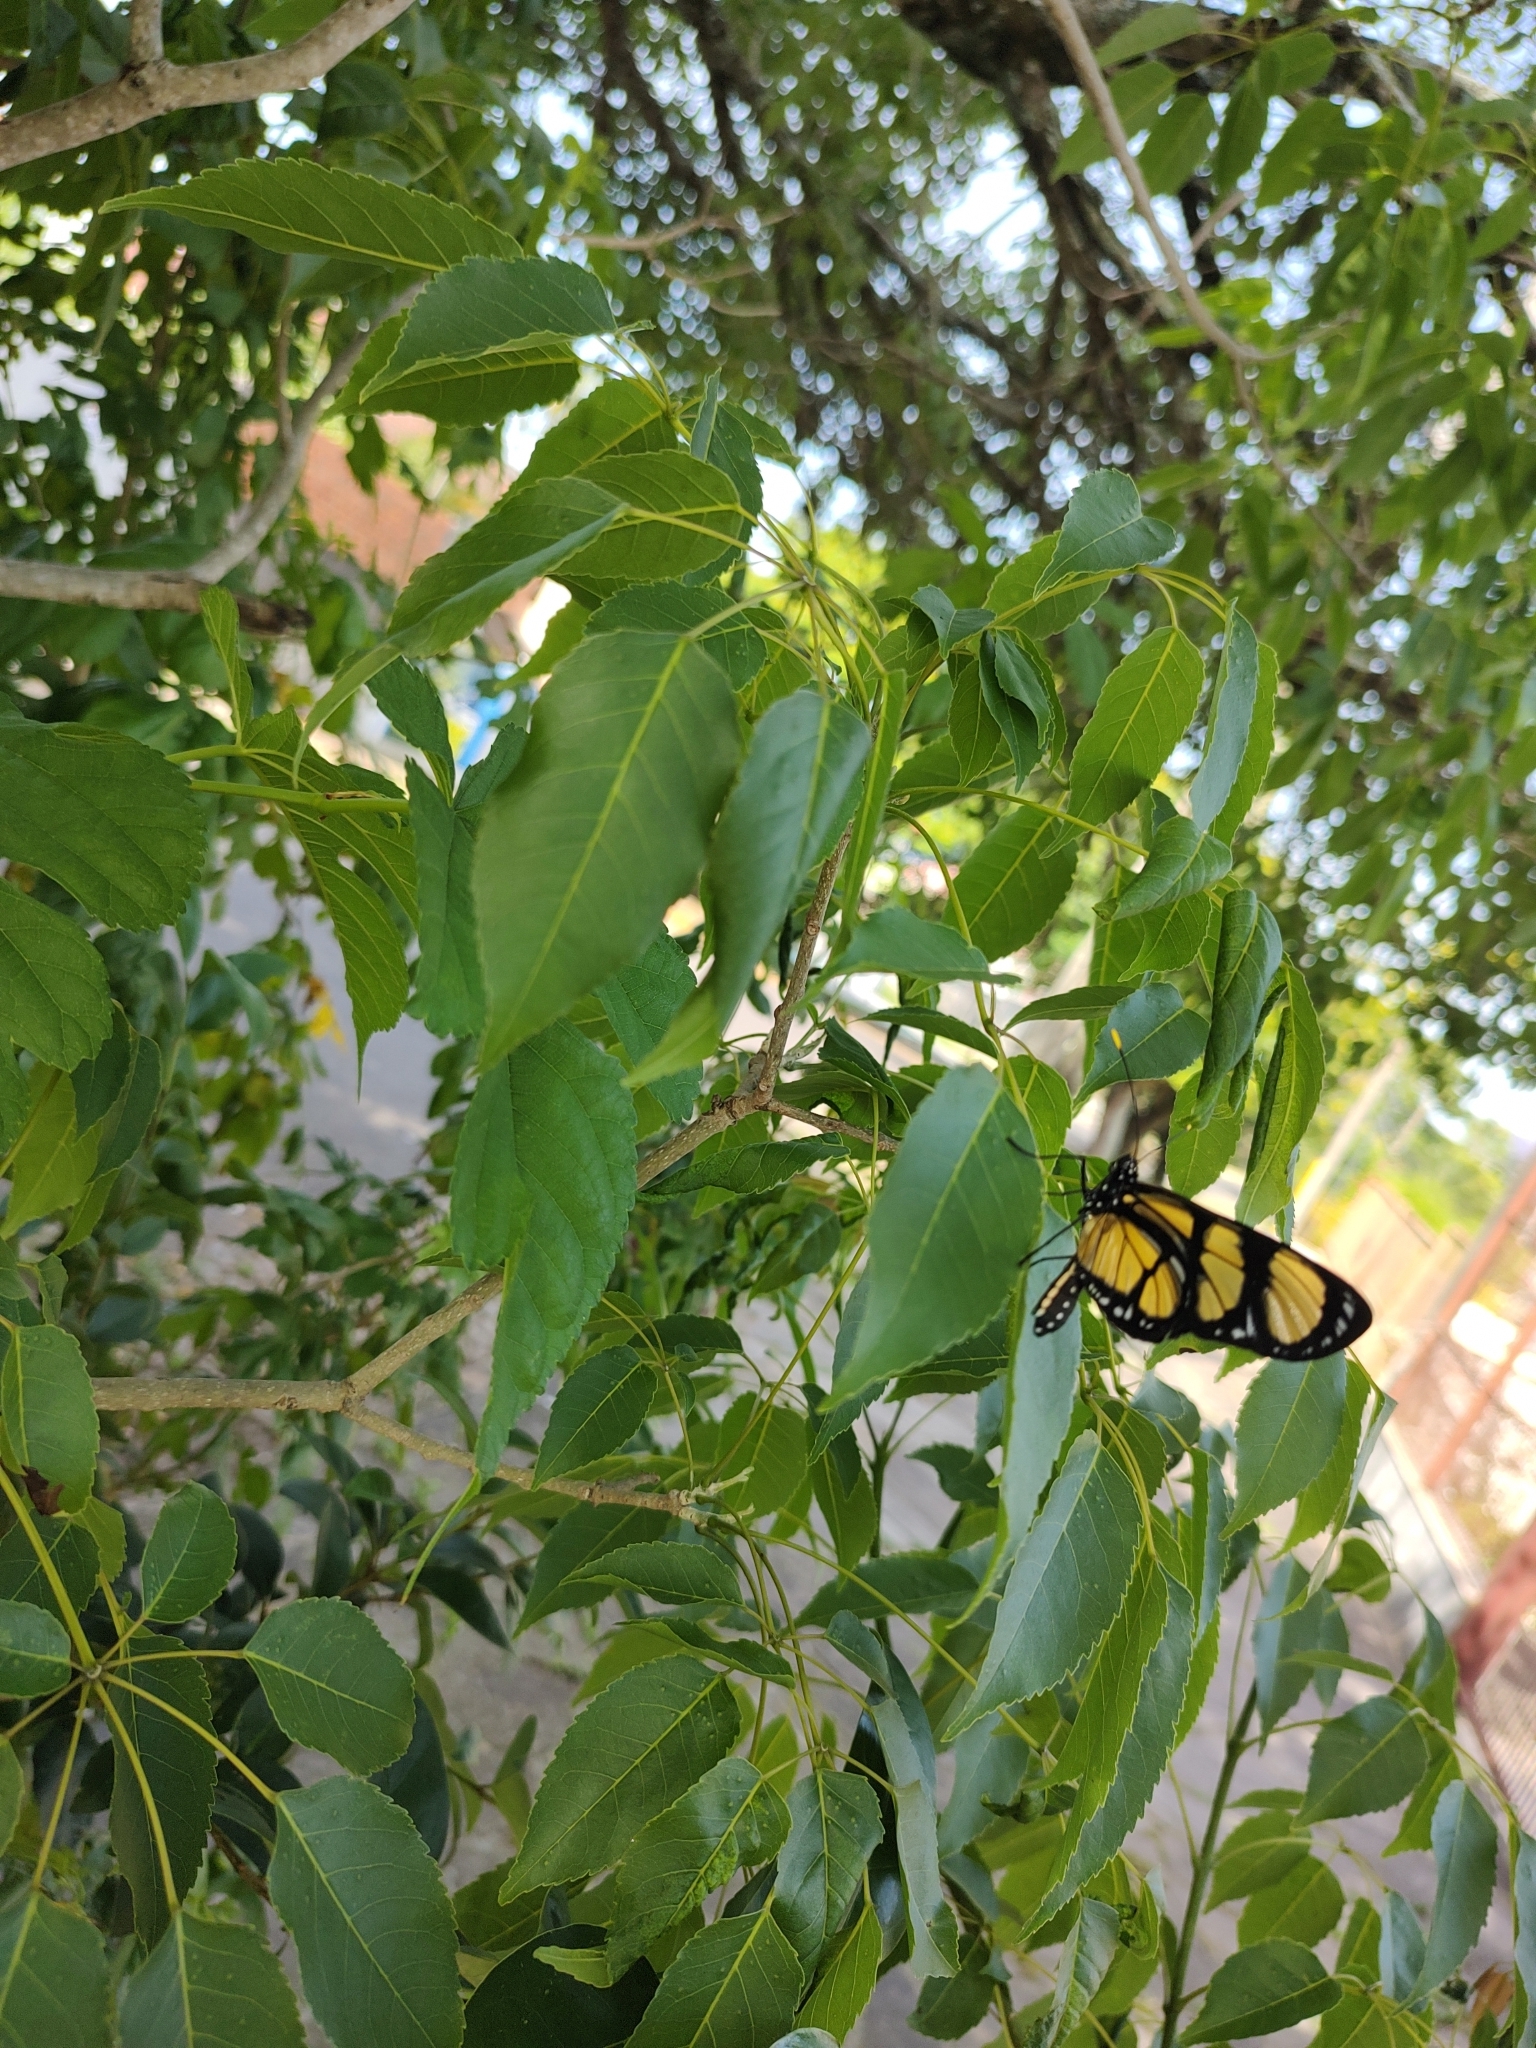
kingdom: Animalia
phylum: Arthropoda
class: Insecta
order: Lepidoptera
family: Nymphalidae
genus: Methona
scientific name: Methona themisto
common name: Themisto amberwing
